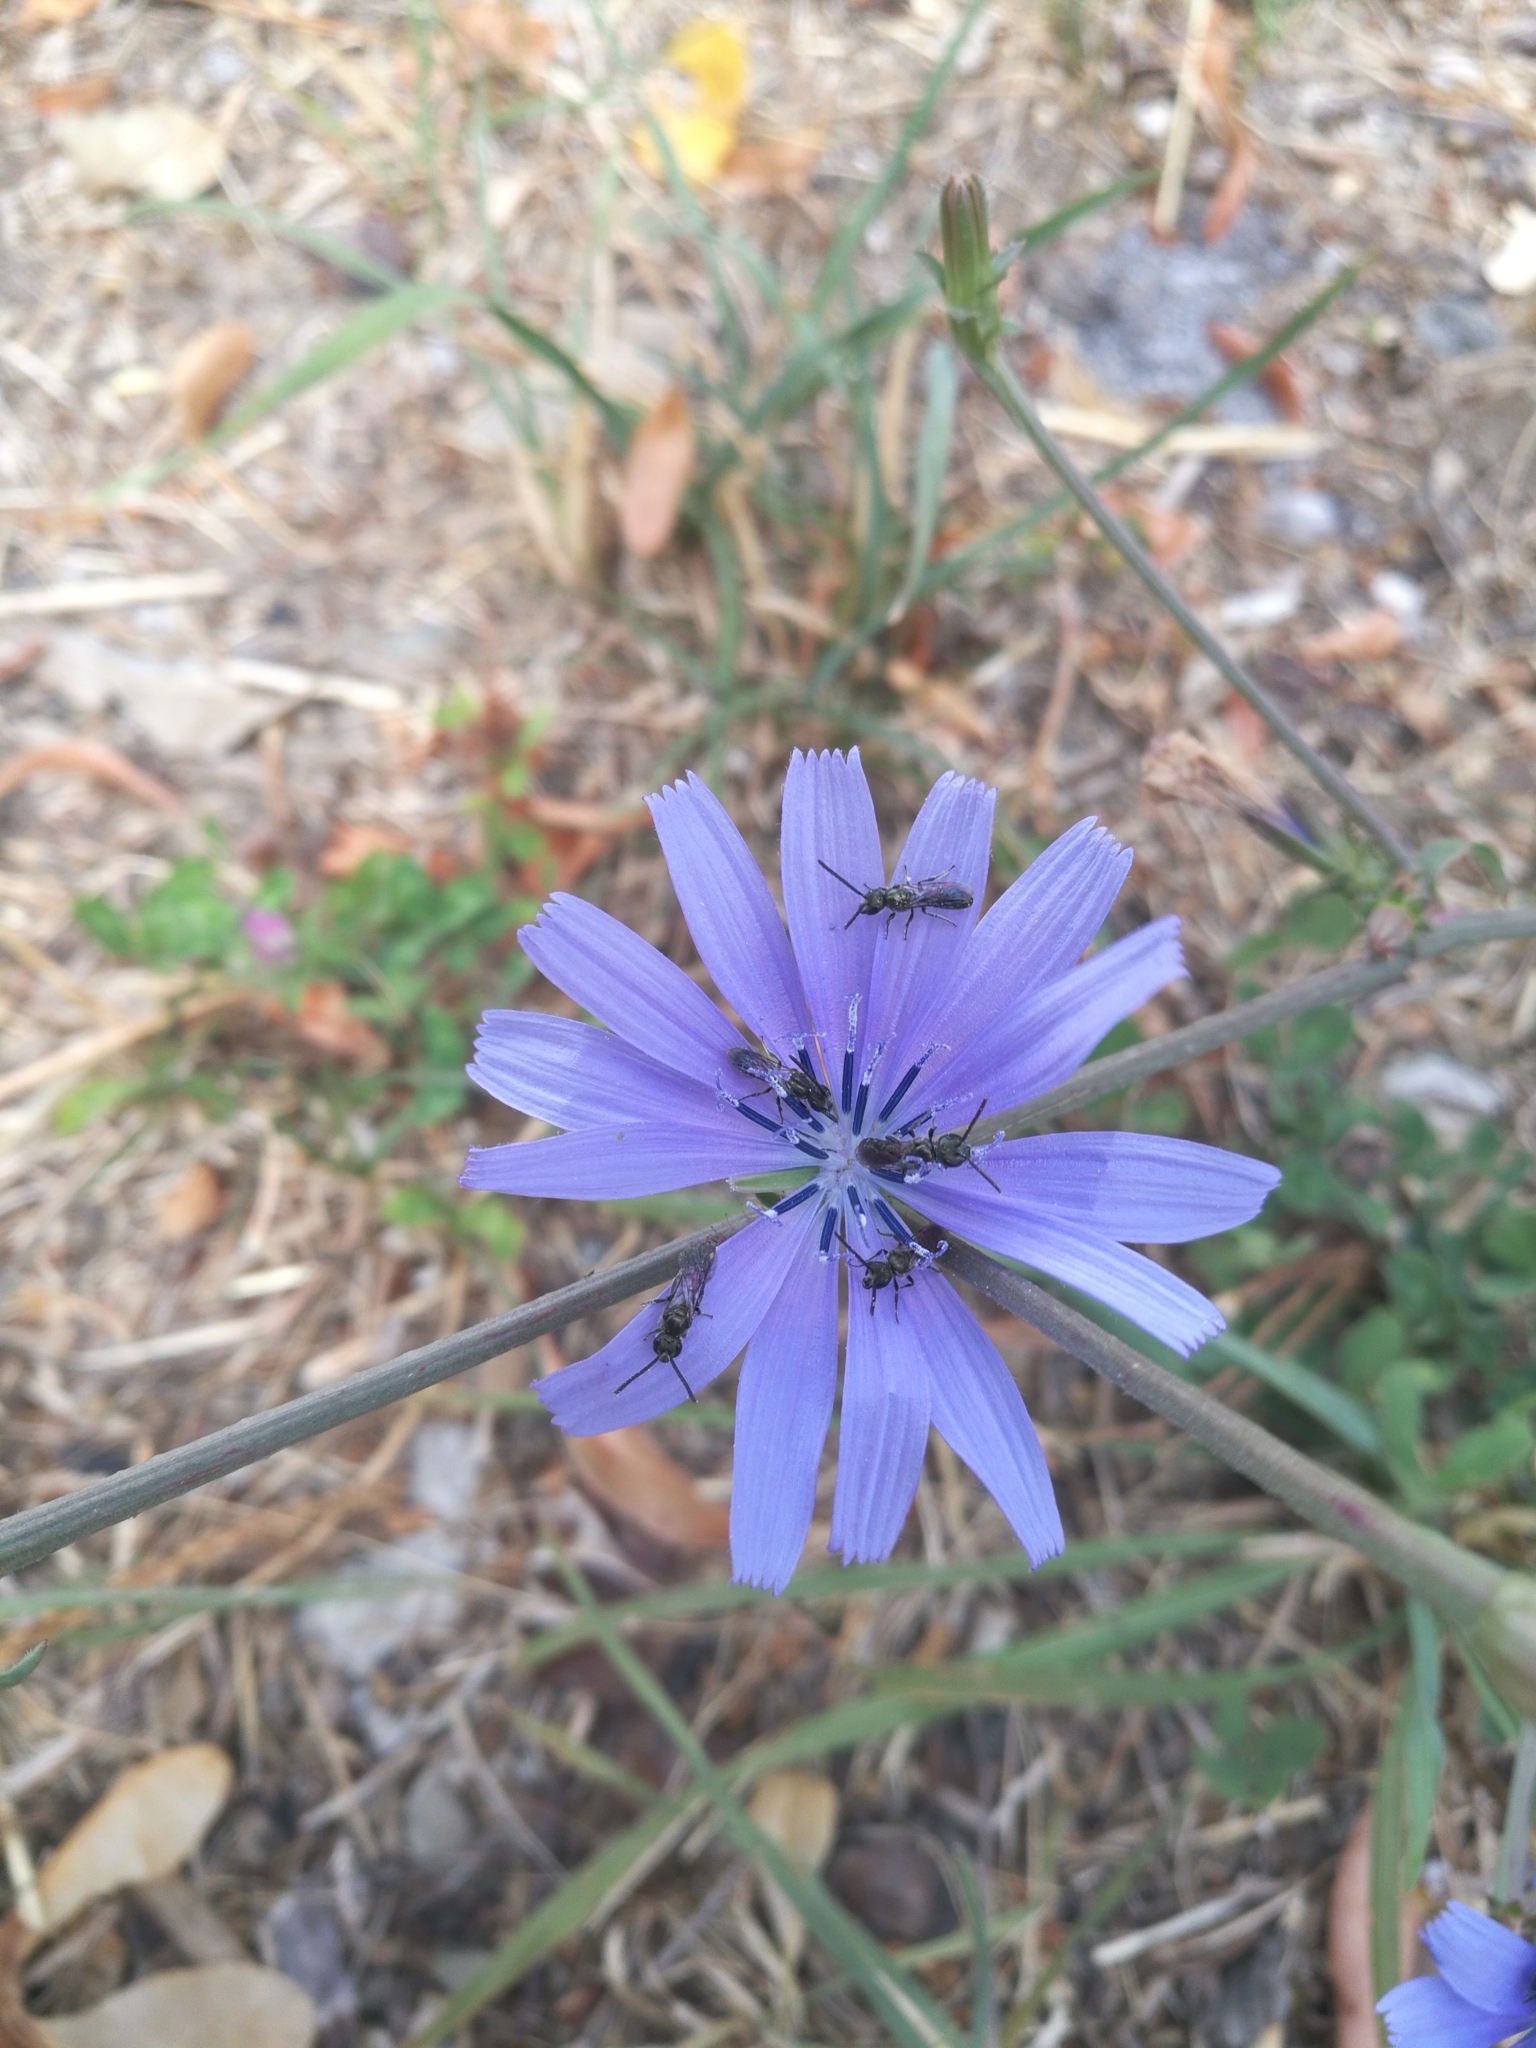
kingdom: Plantae
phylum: Tracheophyta
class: Magnoliopsida
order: Asterales
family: Asteraceae
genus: Cichorium
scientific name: Cichorium intybus
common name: Chicory
